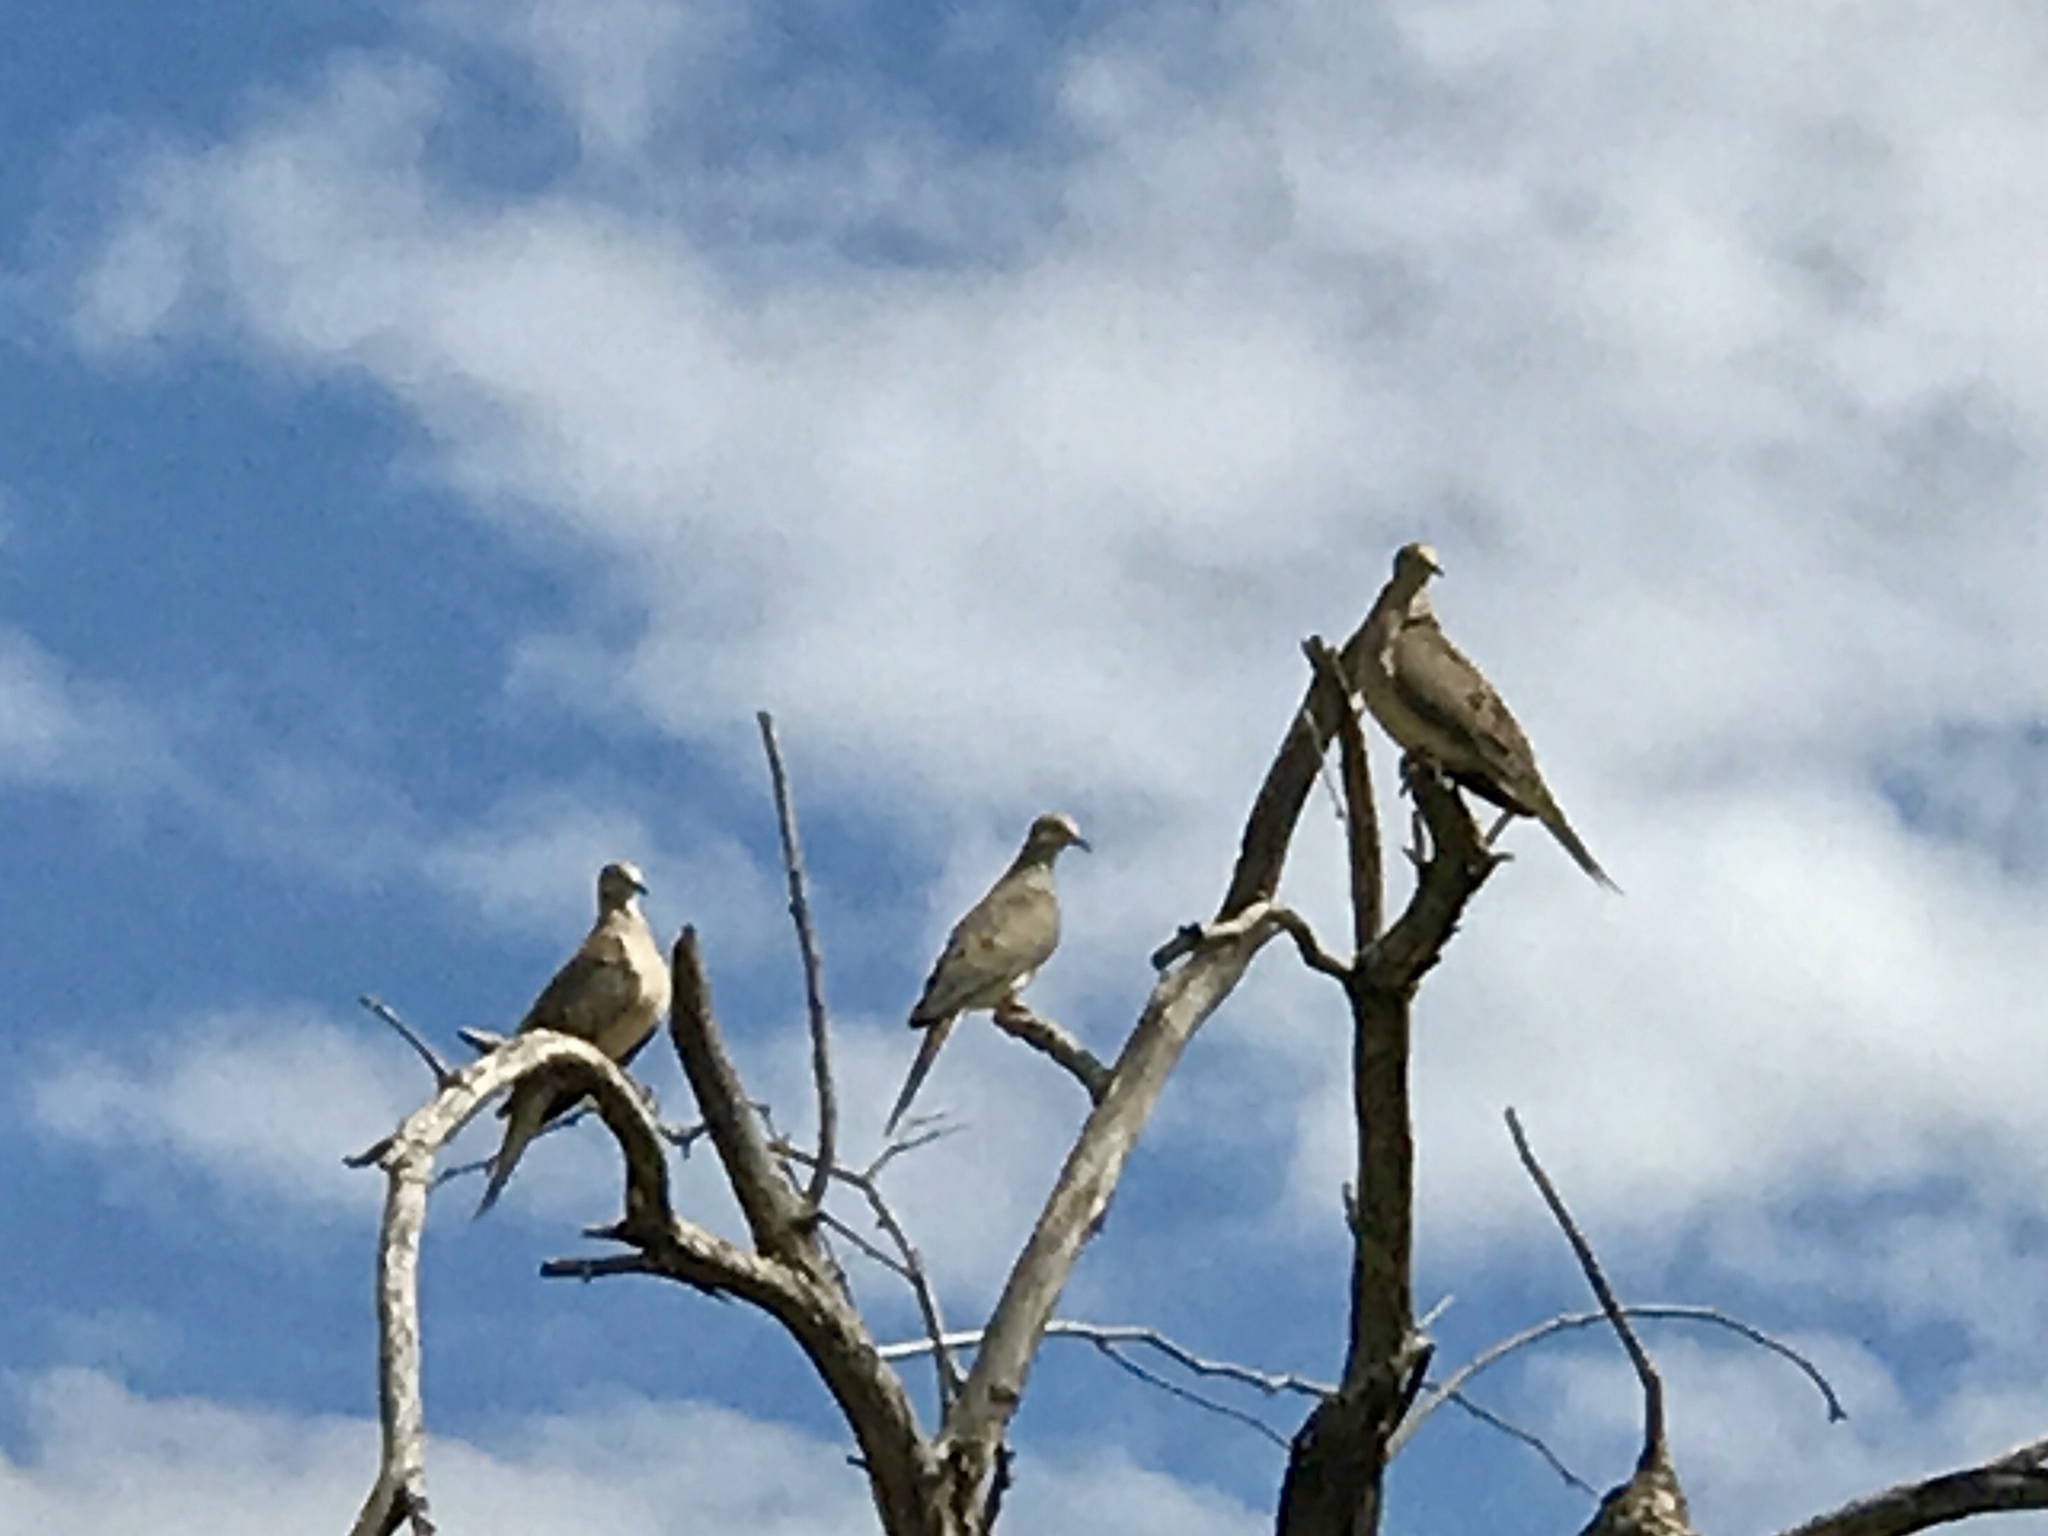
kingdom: Animalia
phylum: Chordata
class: Aves
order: Columbiformes
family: Columbidae
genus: Zenaida
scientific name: Zenaida macroura
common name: Mourning dove
